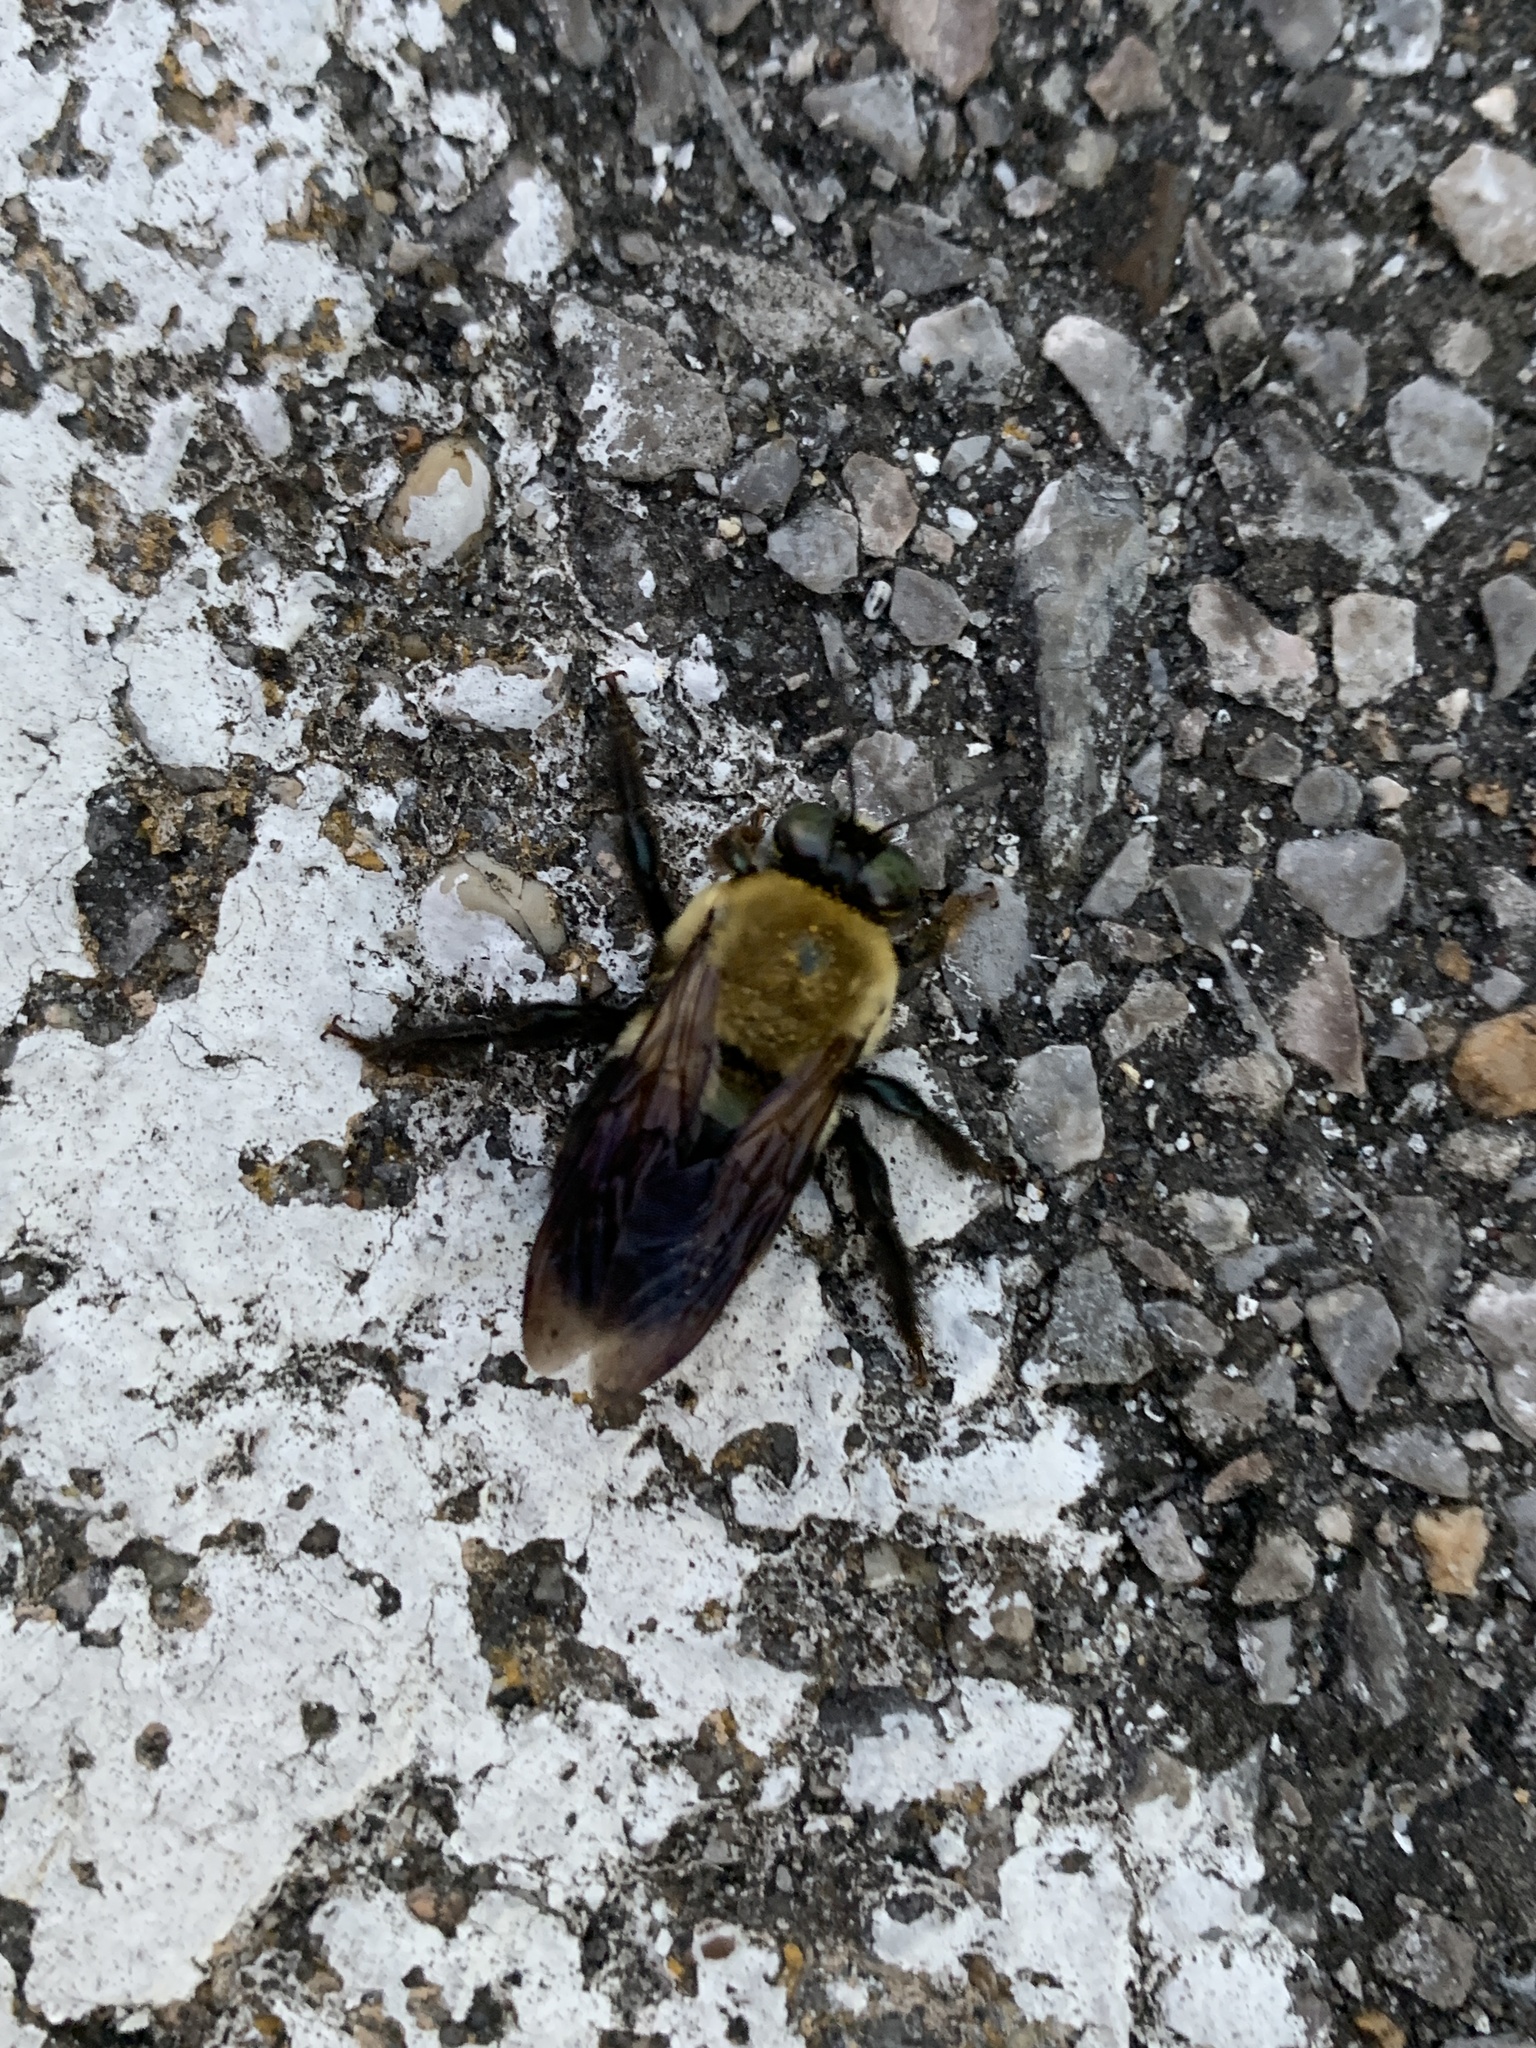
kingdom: Animalia
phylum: Arthropoda
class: Insecta
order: Hymenoptera
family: Apidae
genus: Xylocopa
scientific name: Xylocopa virginica
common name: Carpenter bee
